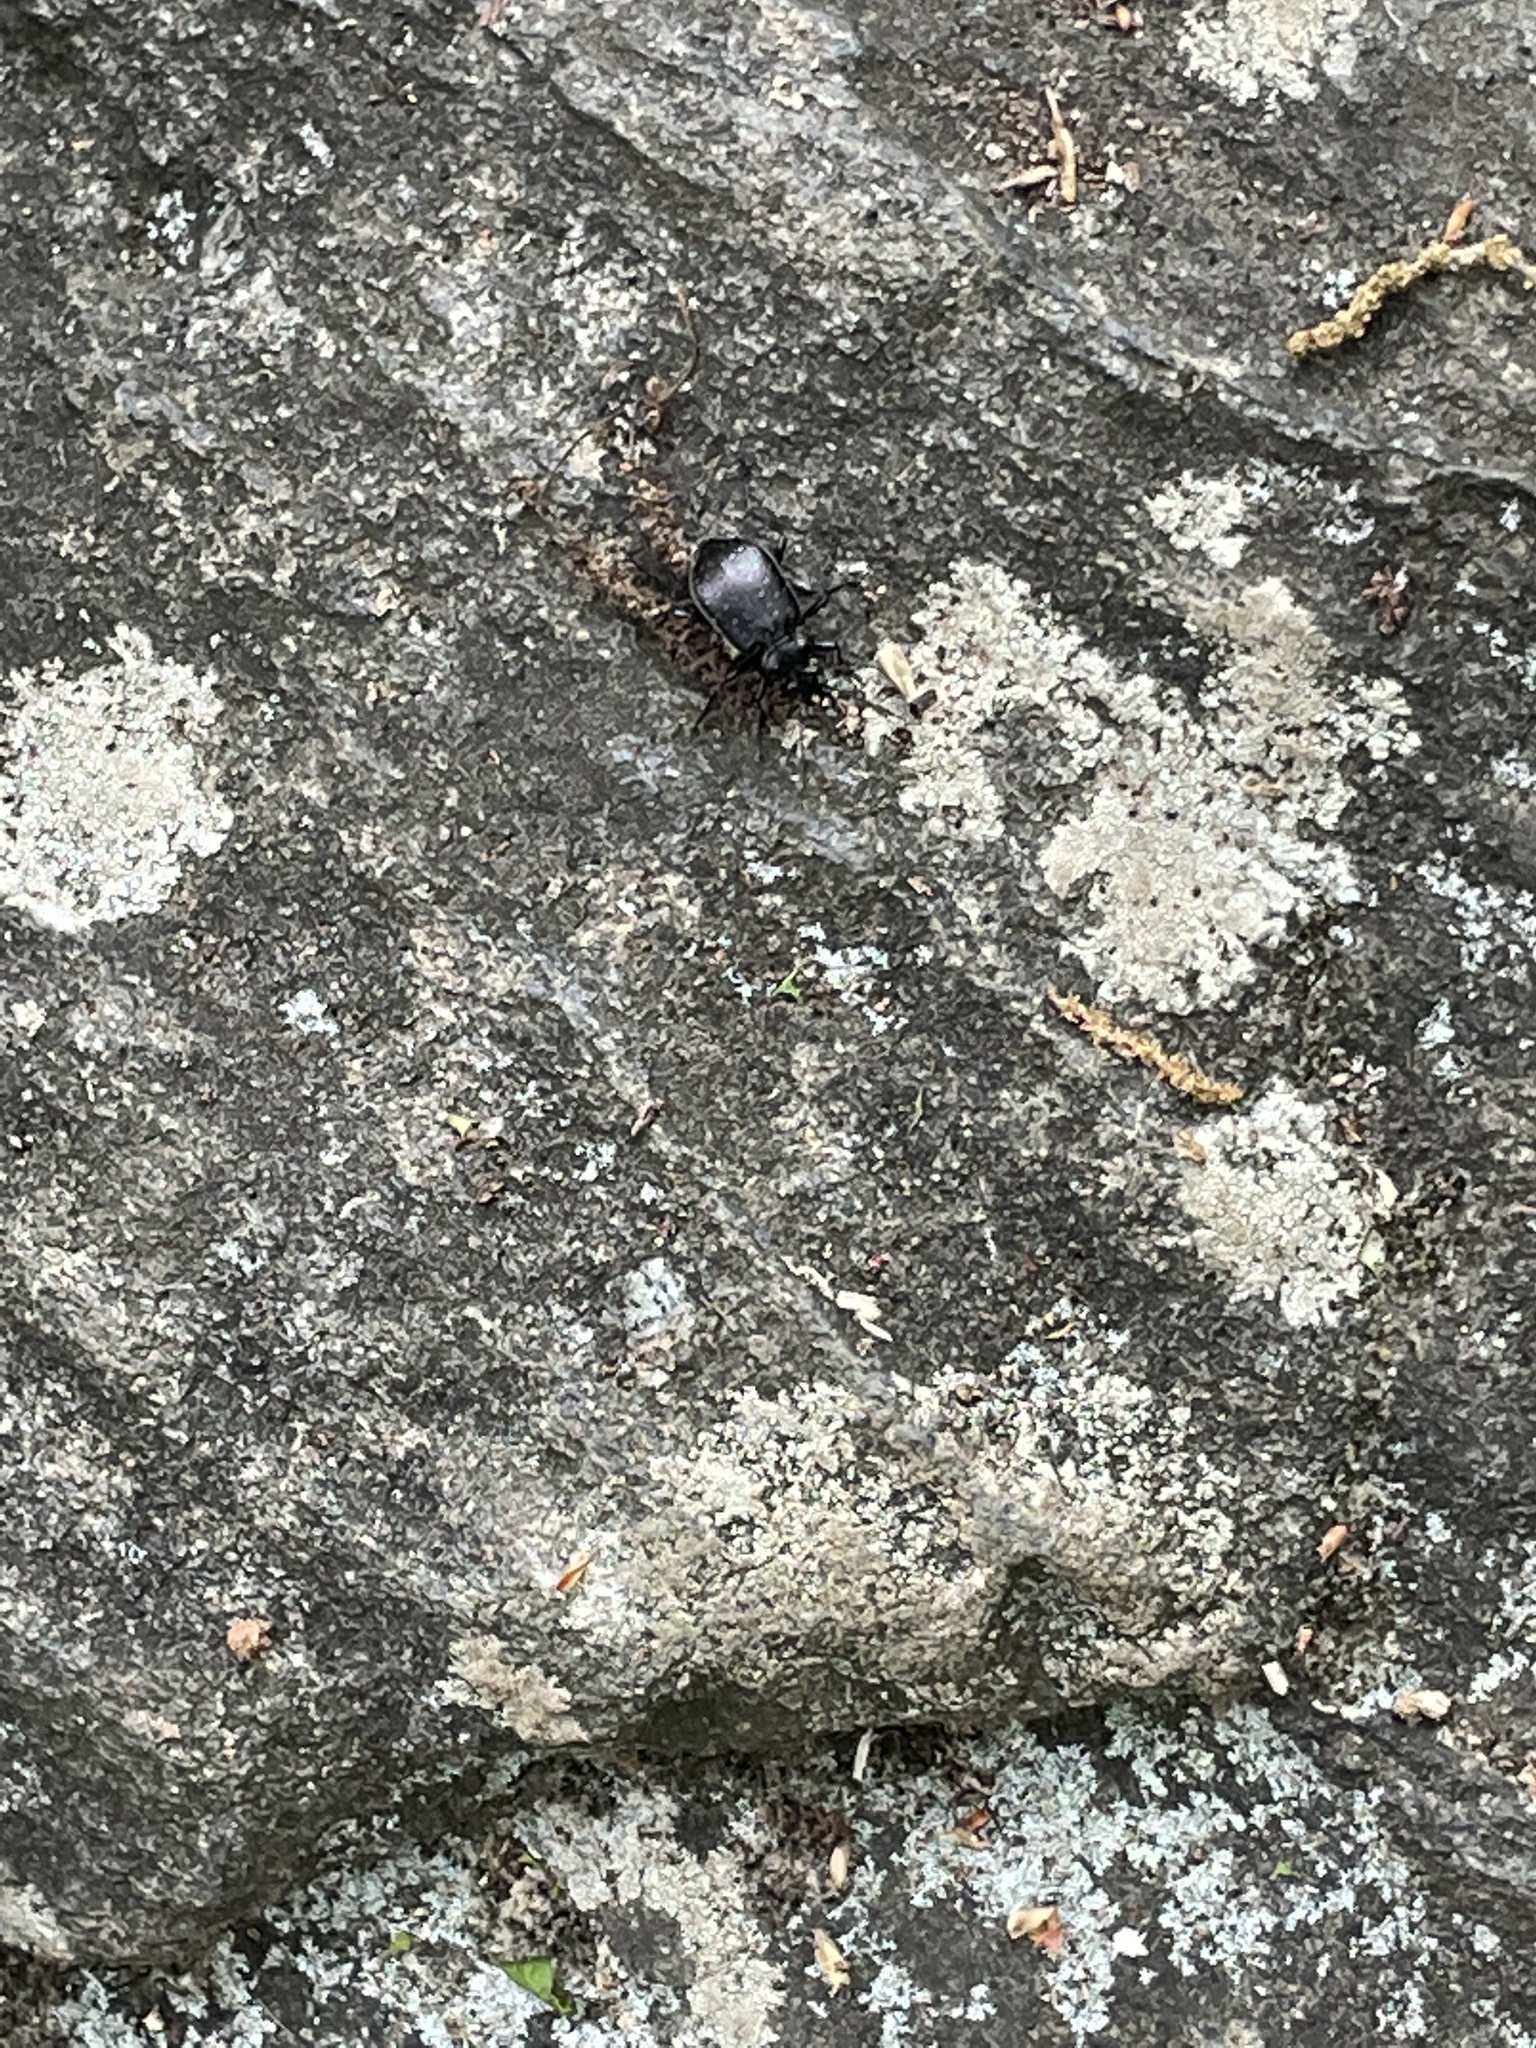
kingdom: Animalia
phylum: Arthropoda
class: Insecta
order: Coleoptera
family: Carabidae
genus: Calosoma
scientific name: Calosoma frigidum
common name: Cold-country caterpillar hunter
